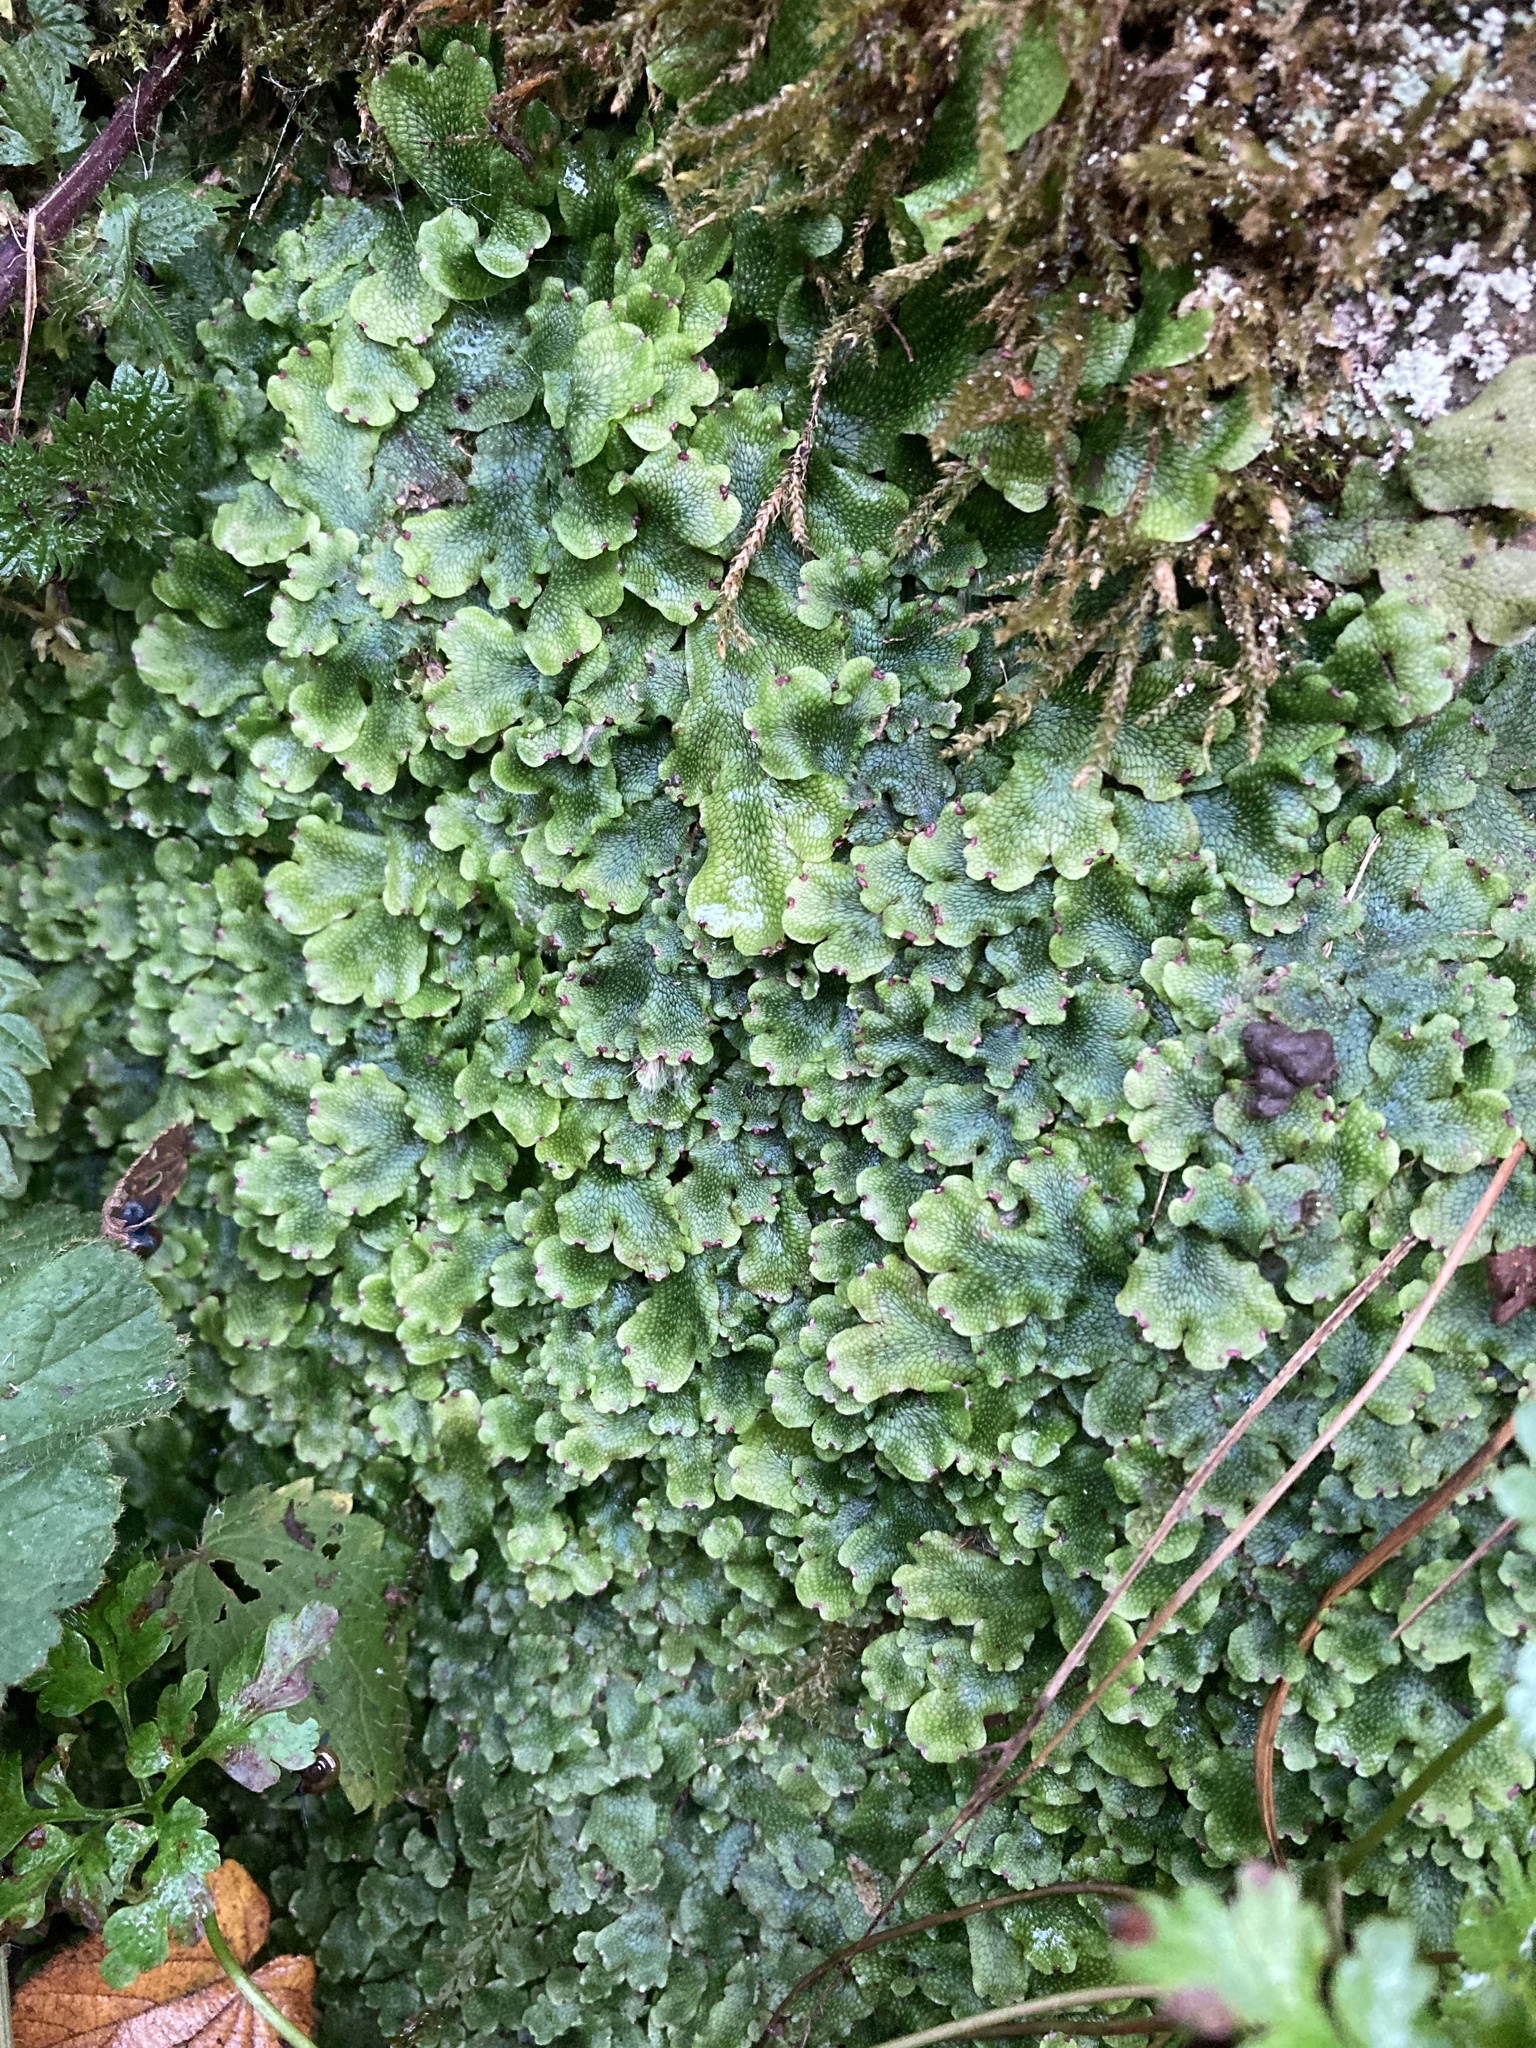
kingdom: Plantae
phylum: Marchantiophyta
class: Marchantiopsida
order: Marchantiales
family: Conocephalaceae
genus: Conocephalum
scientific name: Conocephalum salebrosum
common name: Cat-tongue liverwort
